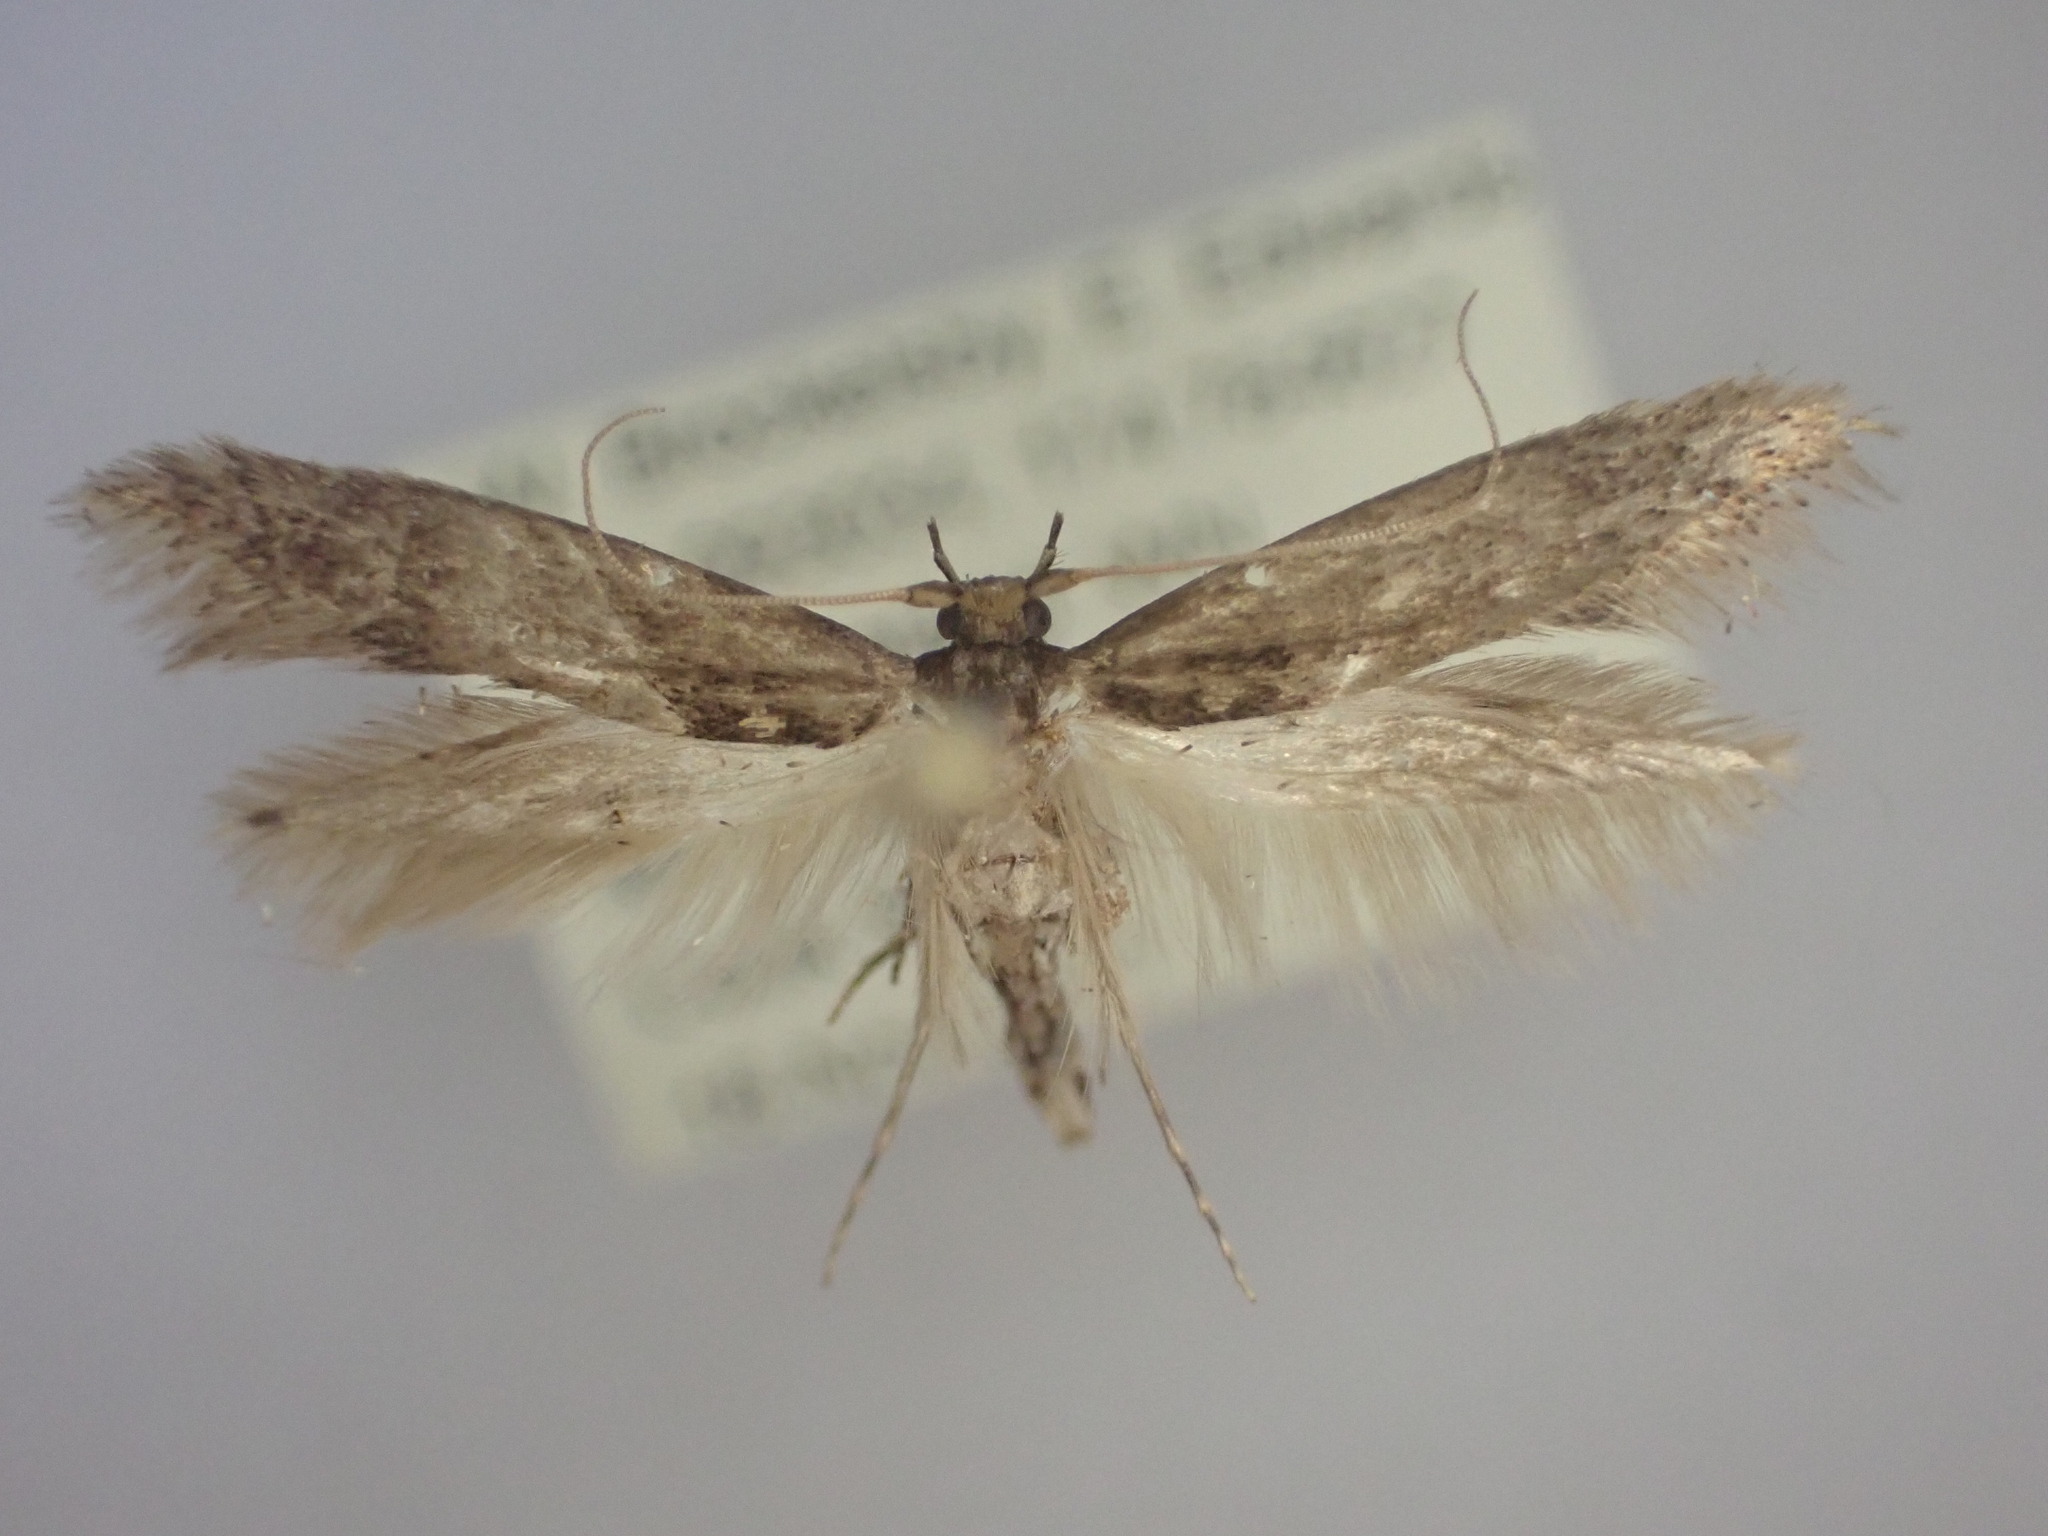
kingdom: Animalia
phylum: Arthropoda
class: Insecta
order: Lepidoptera
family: Tineidae
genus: Opogona
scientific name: Opogona omoscopa
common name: Moth
